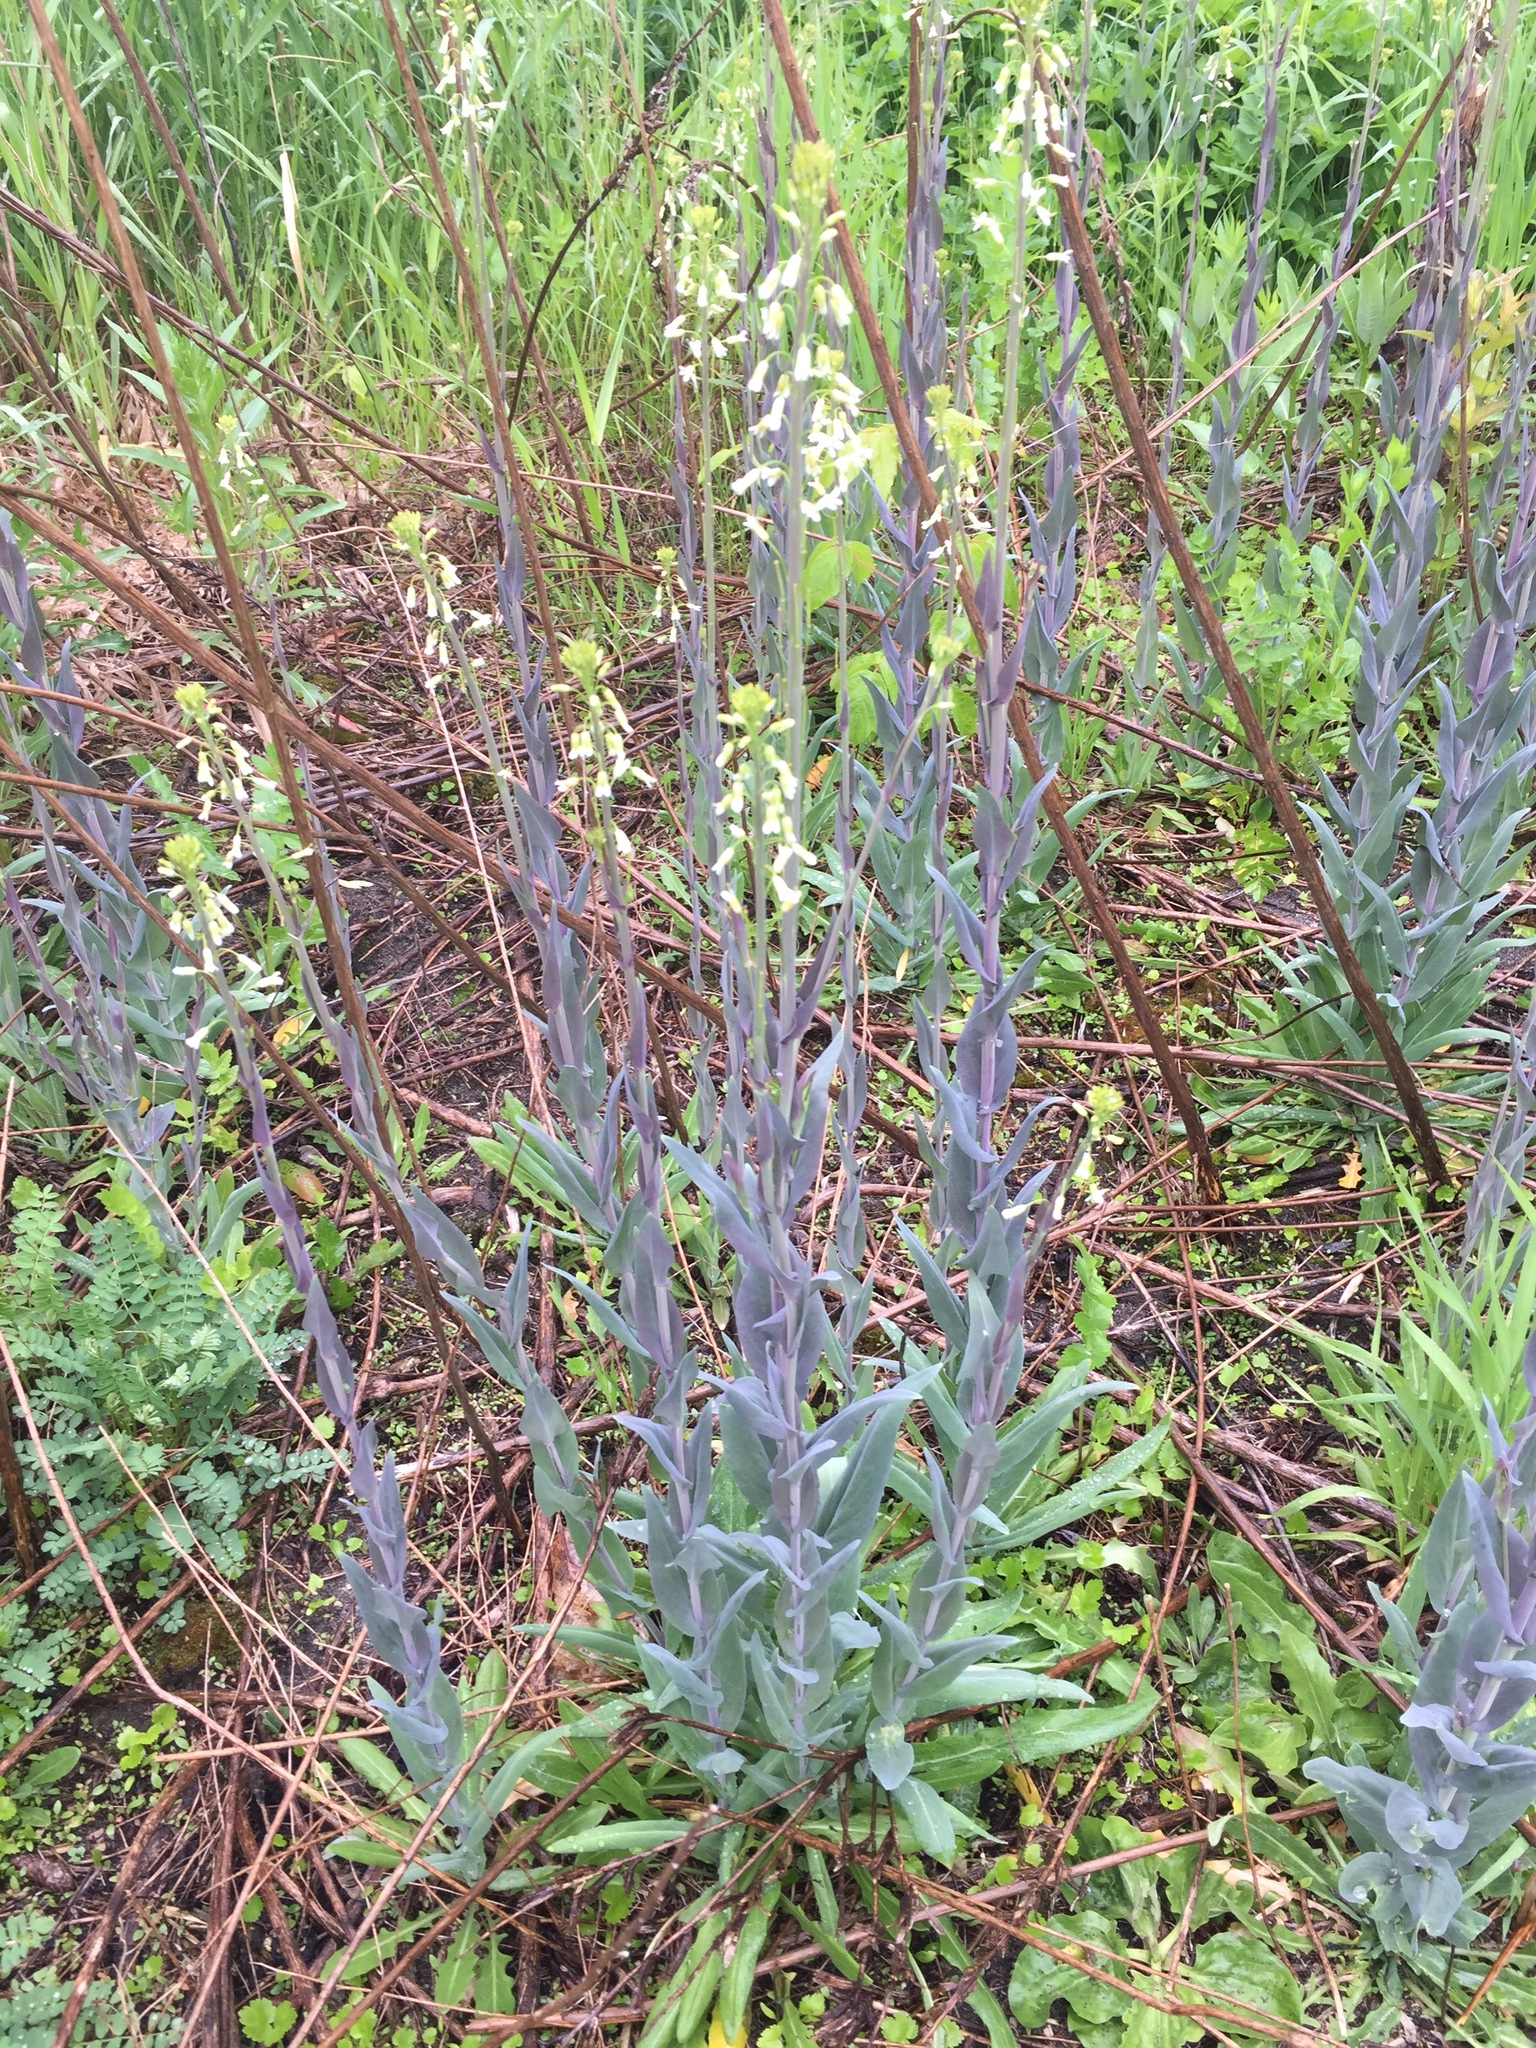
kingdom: Plantae
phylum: Tracheophyta
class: Magnoliopsida
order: Brassicales
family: Brassicaceae
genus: Turritis
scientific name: Turritis glabra
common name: Tower rockcress
